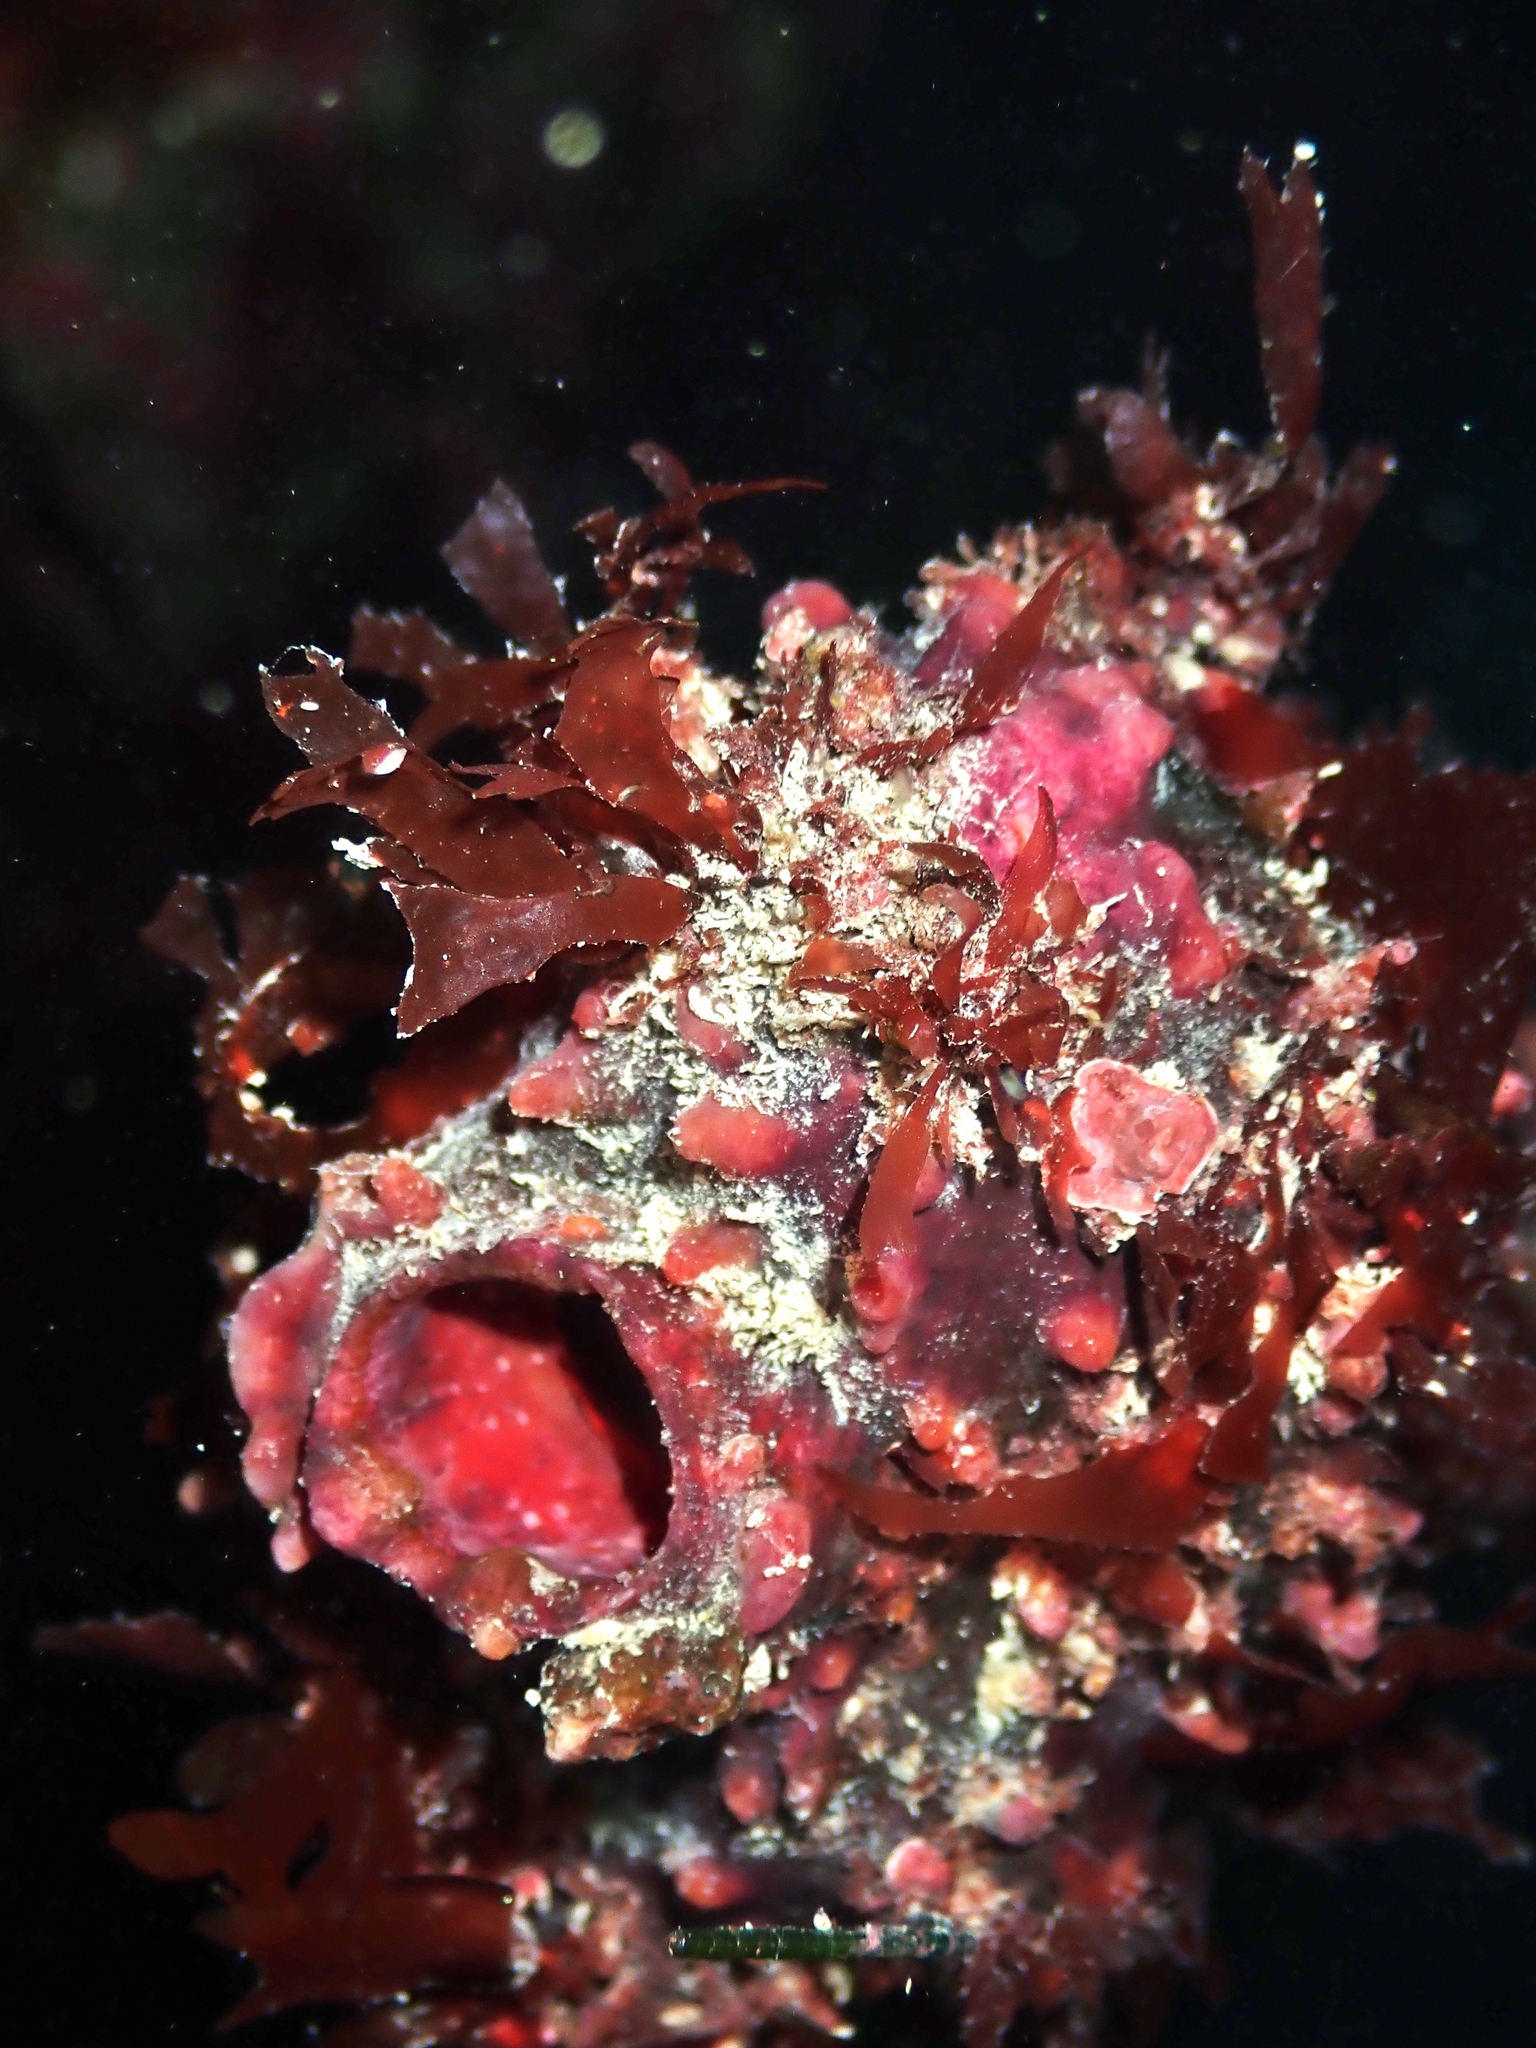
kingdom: Animalia
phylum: Chordata
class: Ascidiacea
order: Stolidobranchia
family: Pyuridae
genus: Pyura
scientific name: Pyura pachydermatina
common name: Sea tulip
